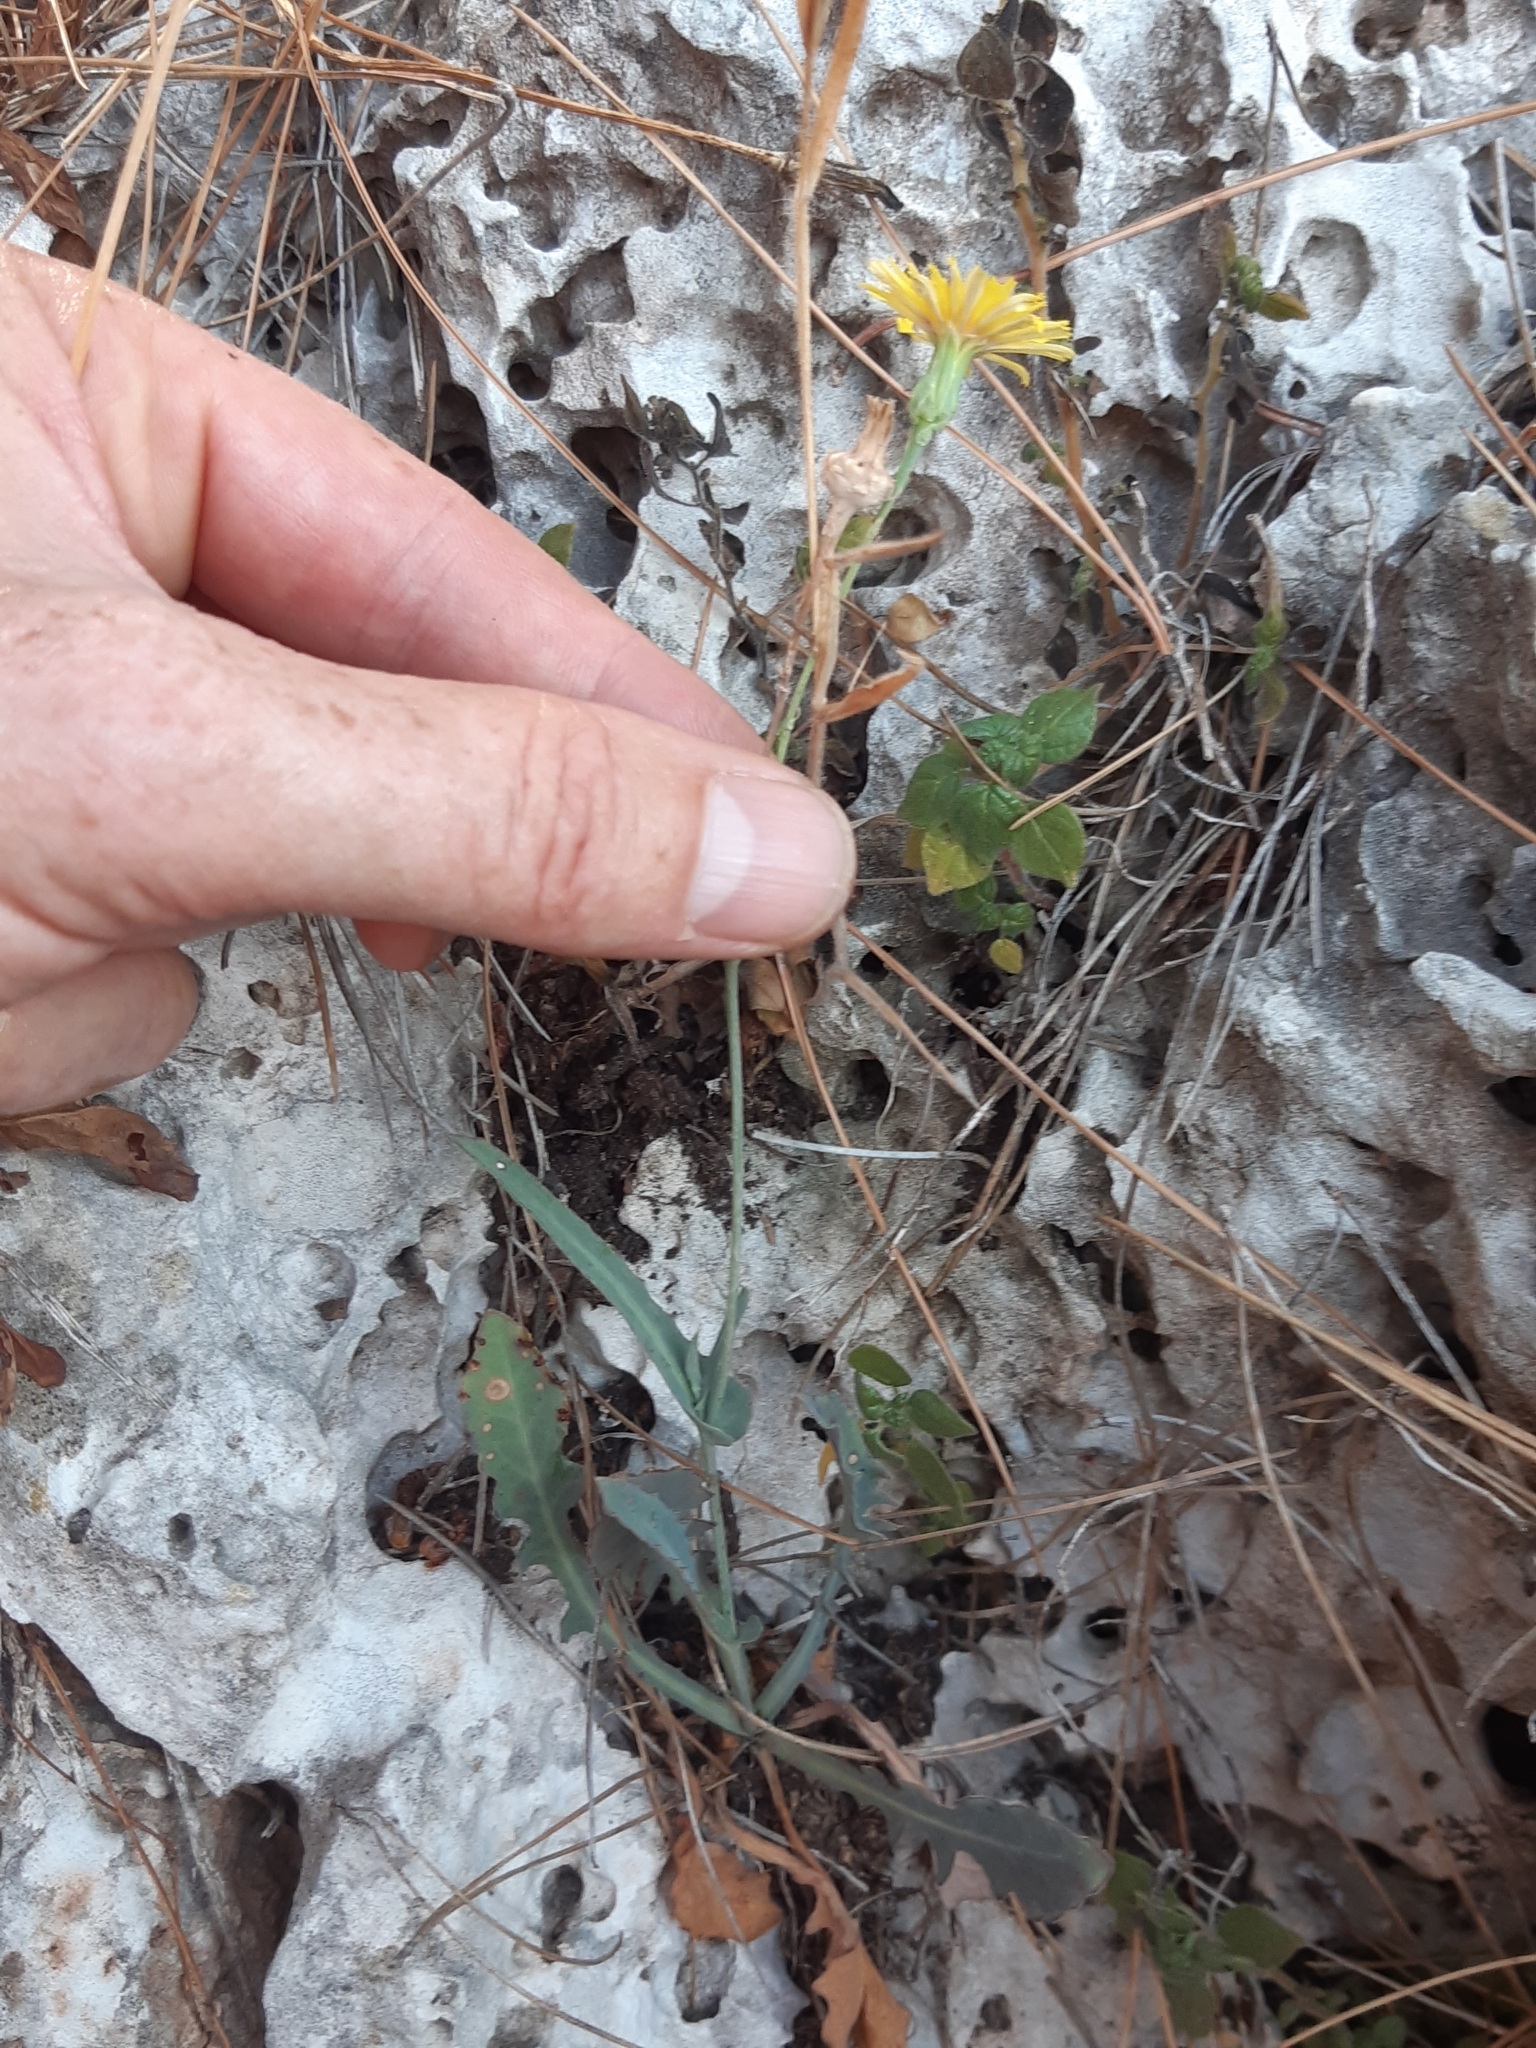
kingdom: Plantae
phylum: Tracheophyta
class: Magnoliopsida
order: Asterales
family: Asteraceae
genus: Reichardia
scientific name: Reichardia picroides
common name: Common brighteyes
